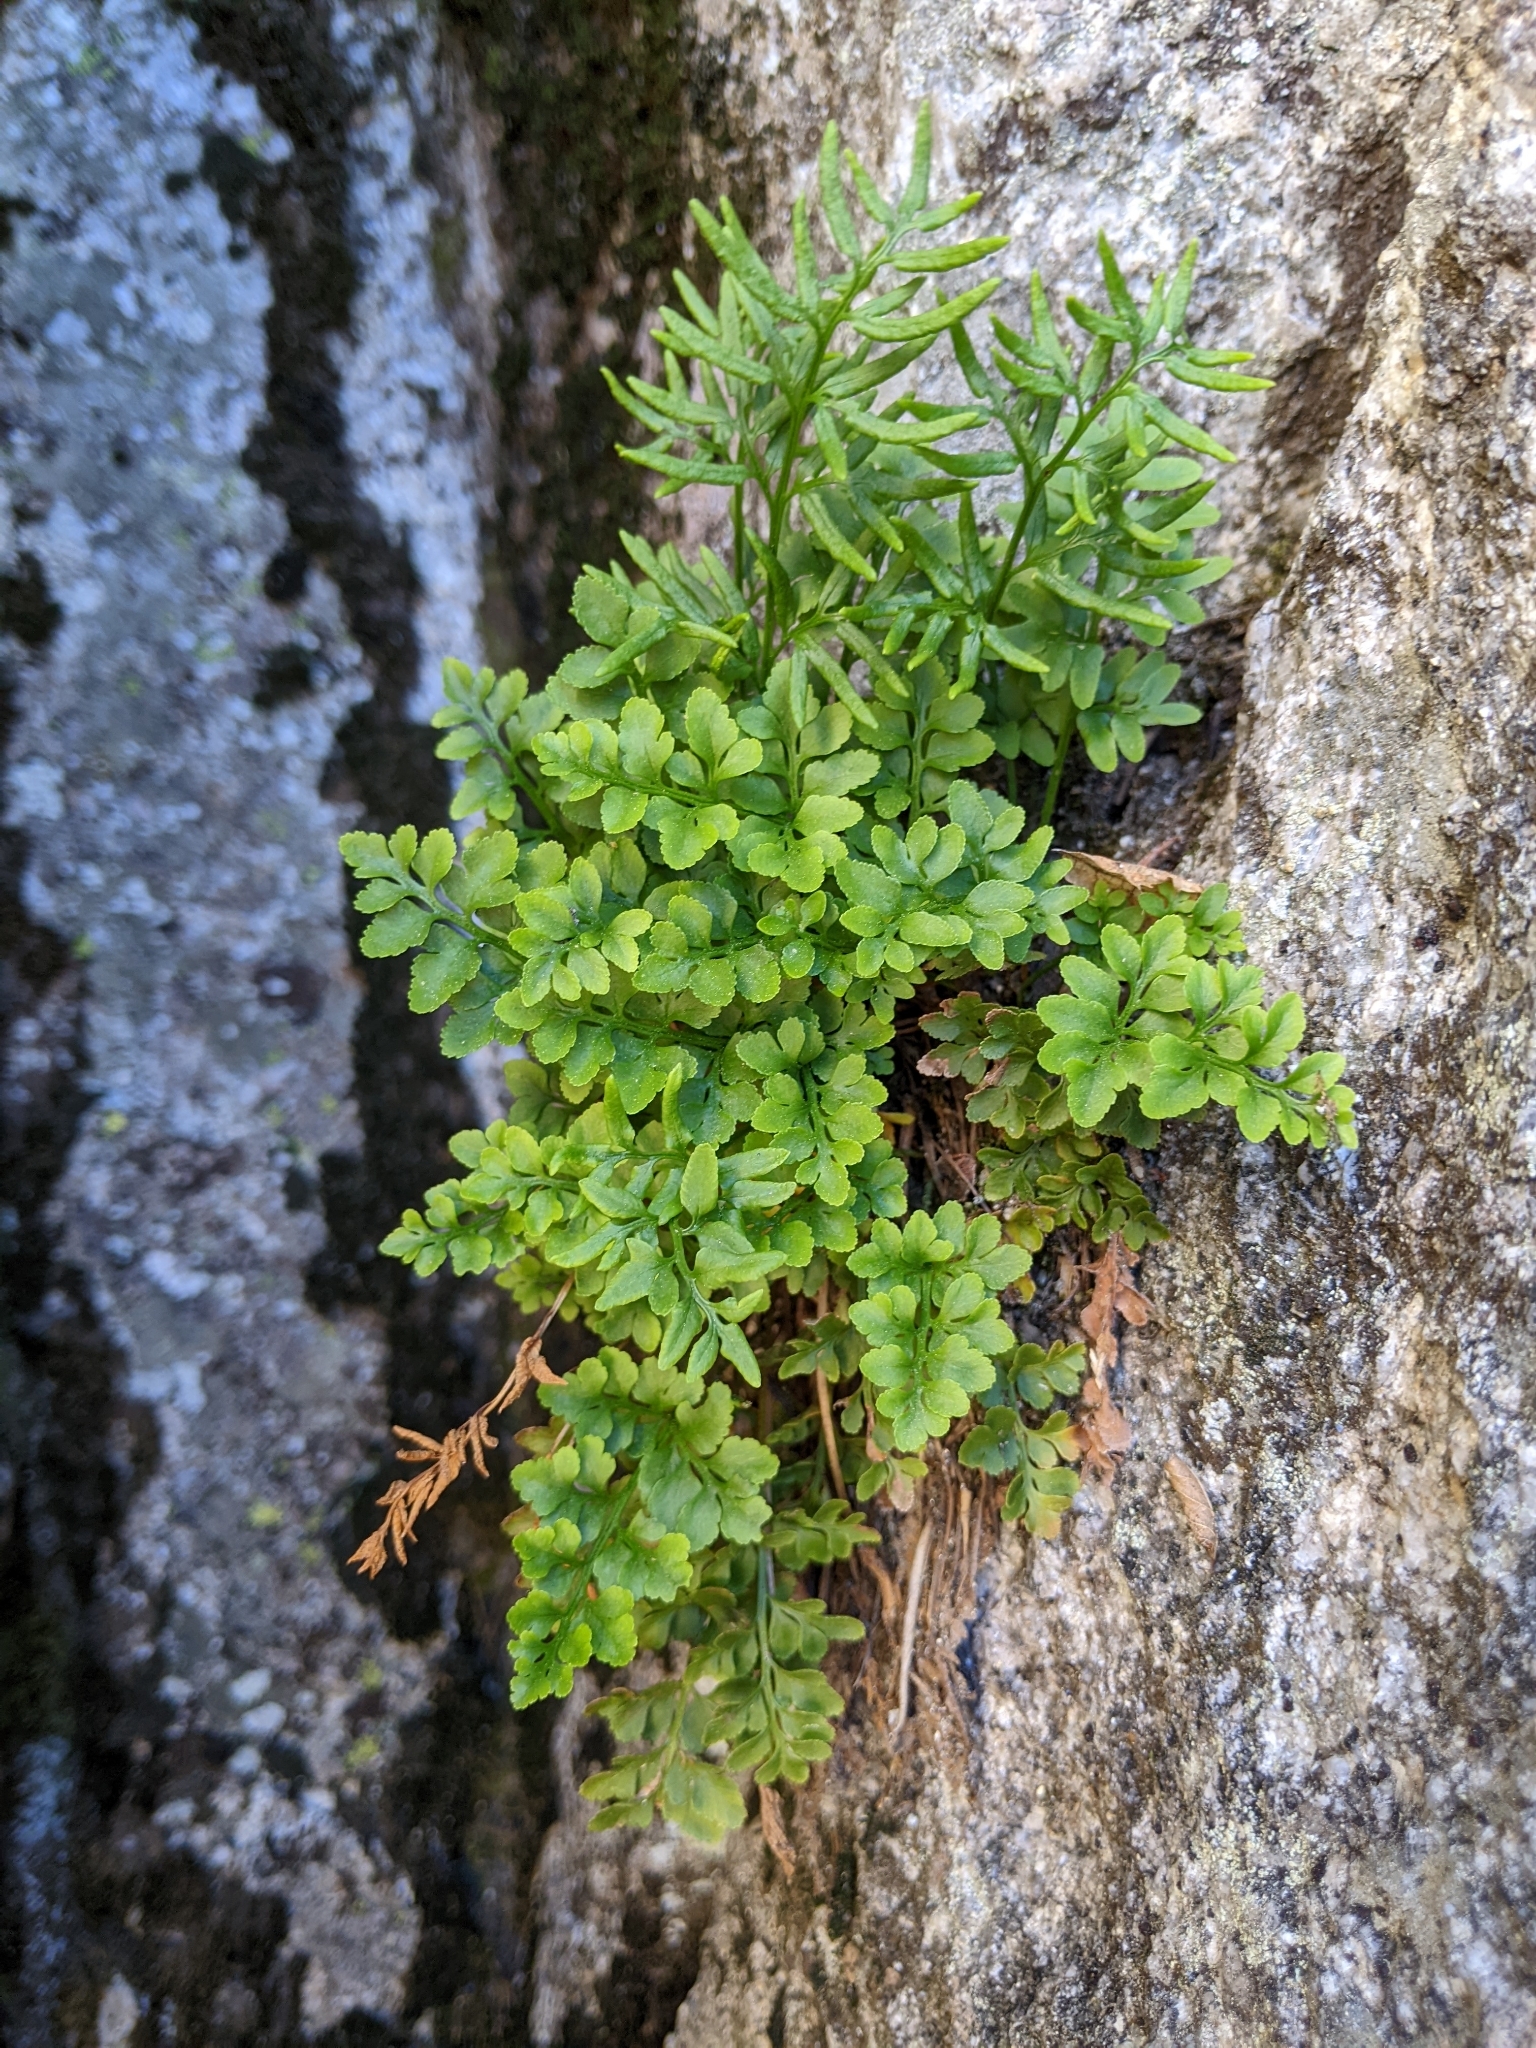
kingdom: Plantae
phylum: Tracheophyta
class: Polypodiopsida
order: Polypodiales
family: Pteridaceae
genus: Cryptogramma
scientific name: Cryptogramma acrostichoides
